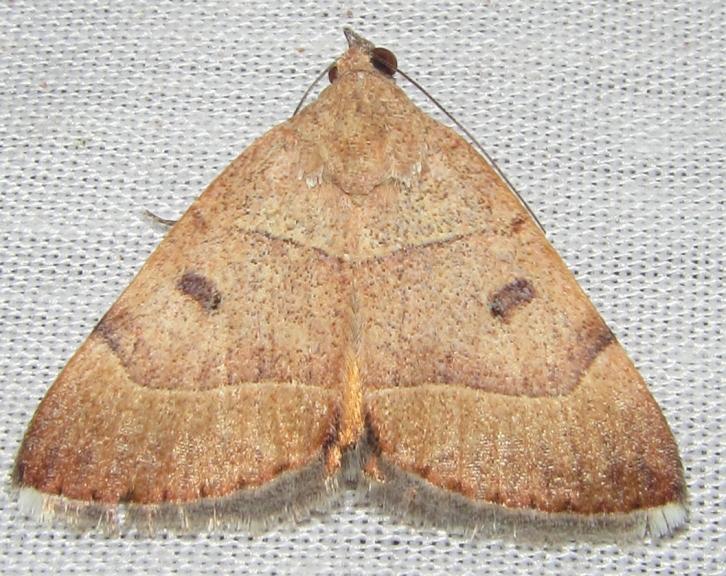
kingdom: Animalia
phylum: Arthropoda
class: Insecta
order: Lepidoptera
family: Erebidae
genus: Plecopterodes
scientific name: Plecopterodes moderata
